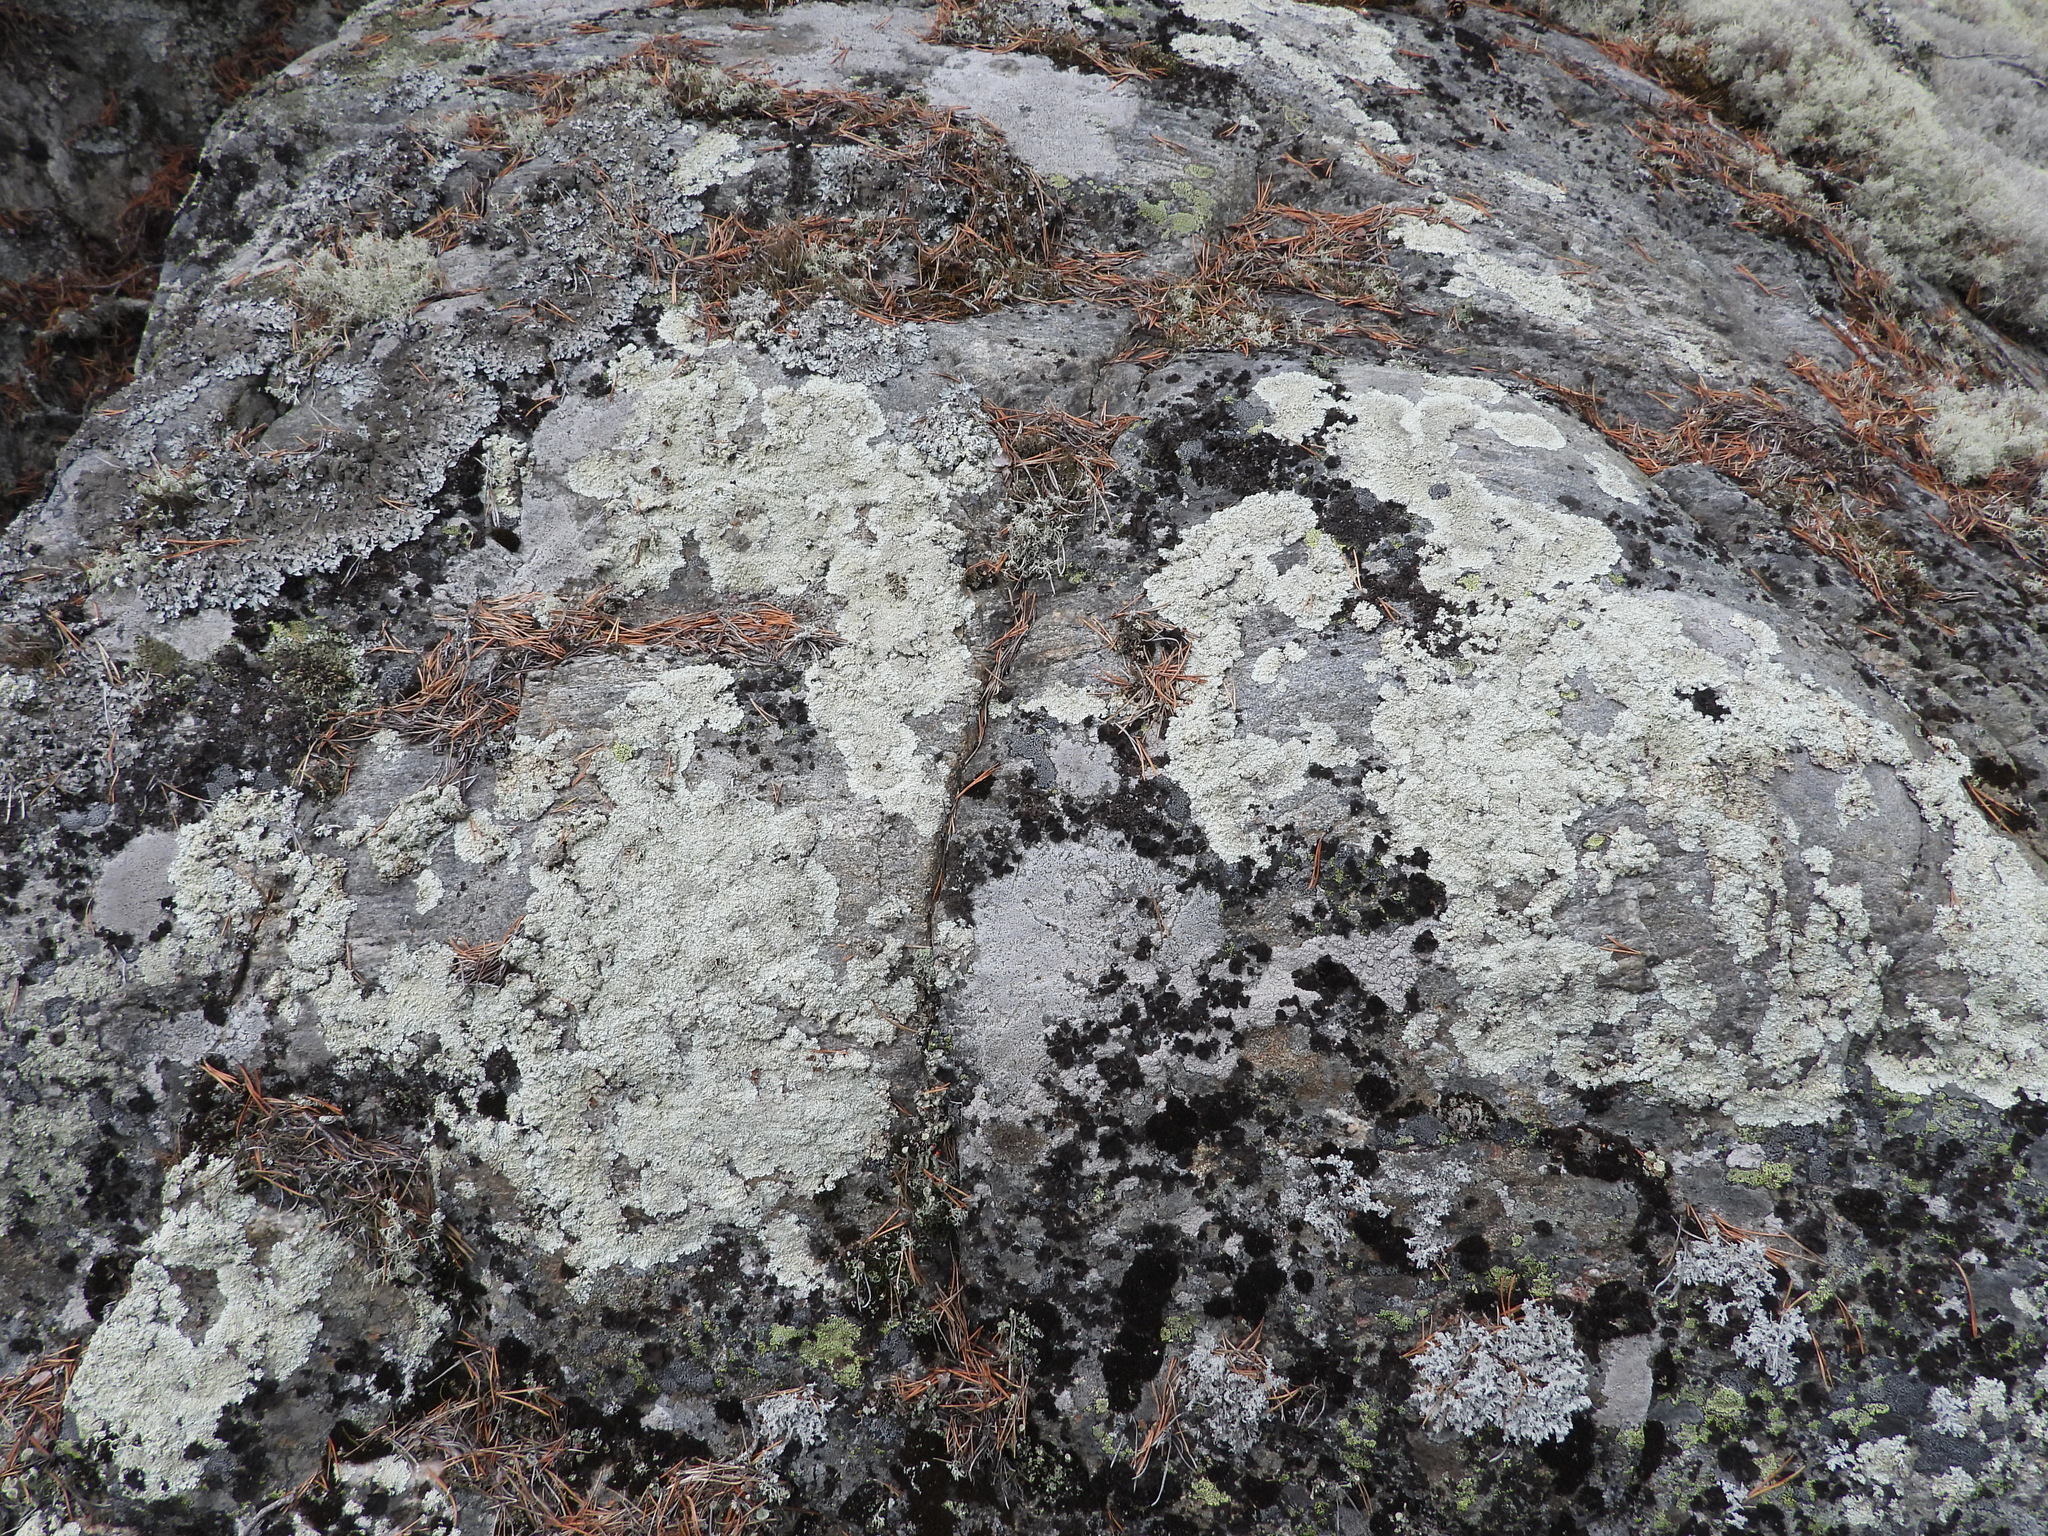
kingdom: Fungi
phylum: Ascomycota
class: Lecanoromycetes
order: Lecanorales
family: Parmeliaceae
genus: Arctoparmelia
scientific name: Arctoparmelia centrifuga
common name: Concentric ring lichen
